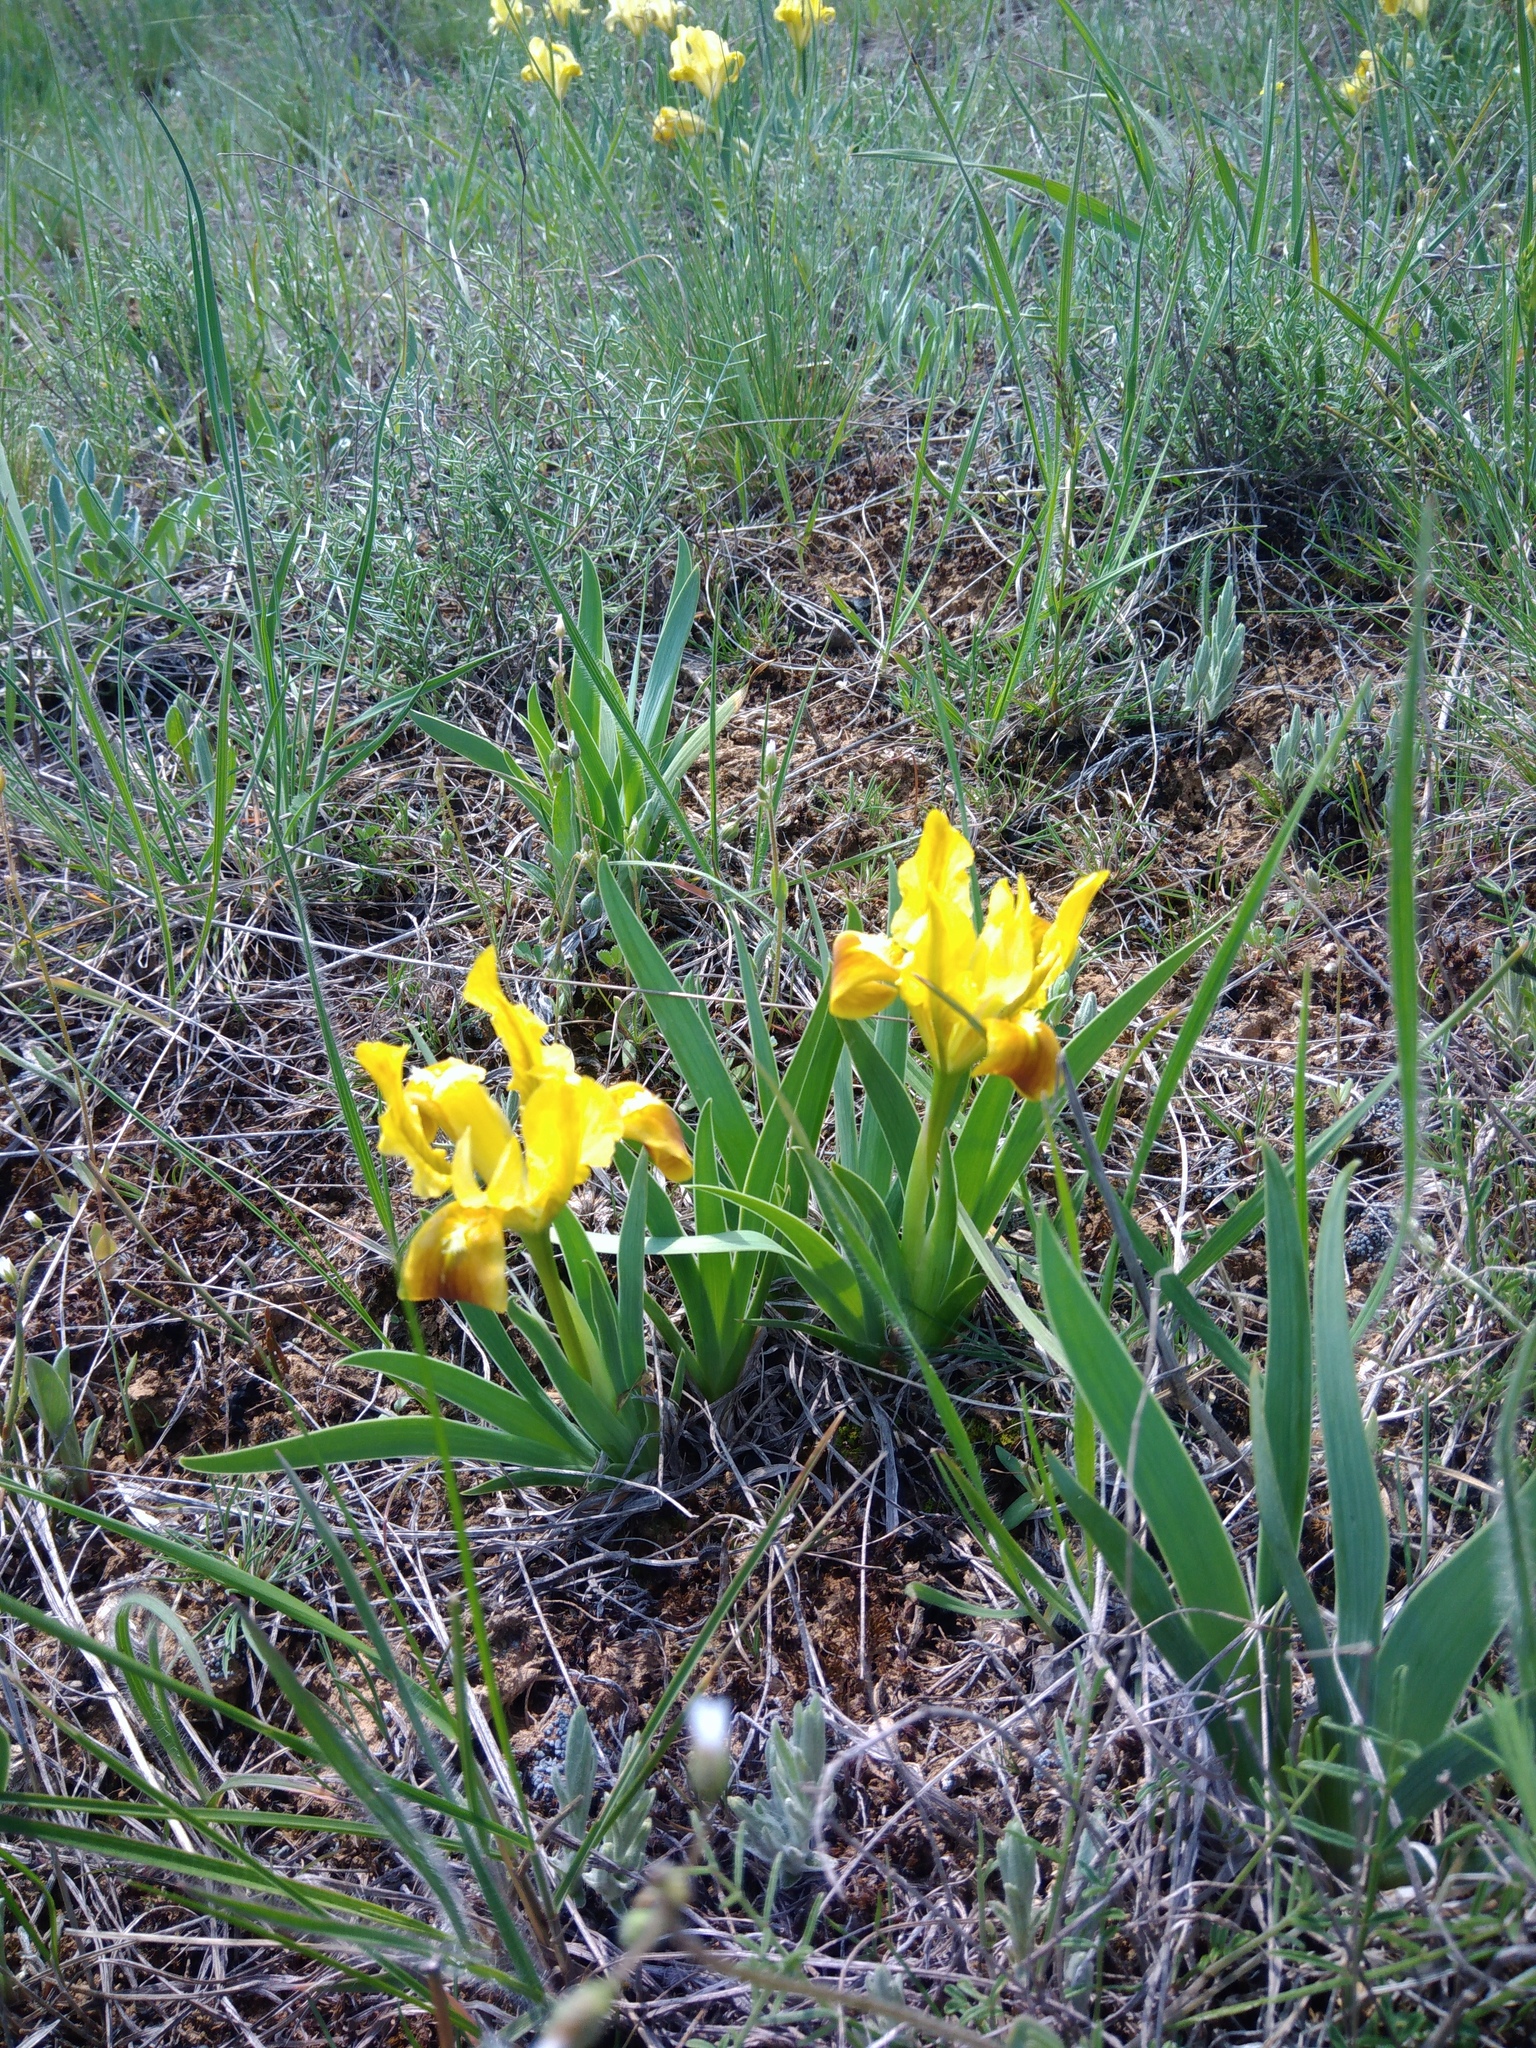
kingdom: Plantae
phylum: Tracheophyta
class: Liliopsida
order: Asparagales
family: Iridaceae
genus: Iris
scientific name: Iris pumila
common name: Dwarf iris
